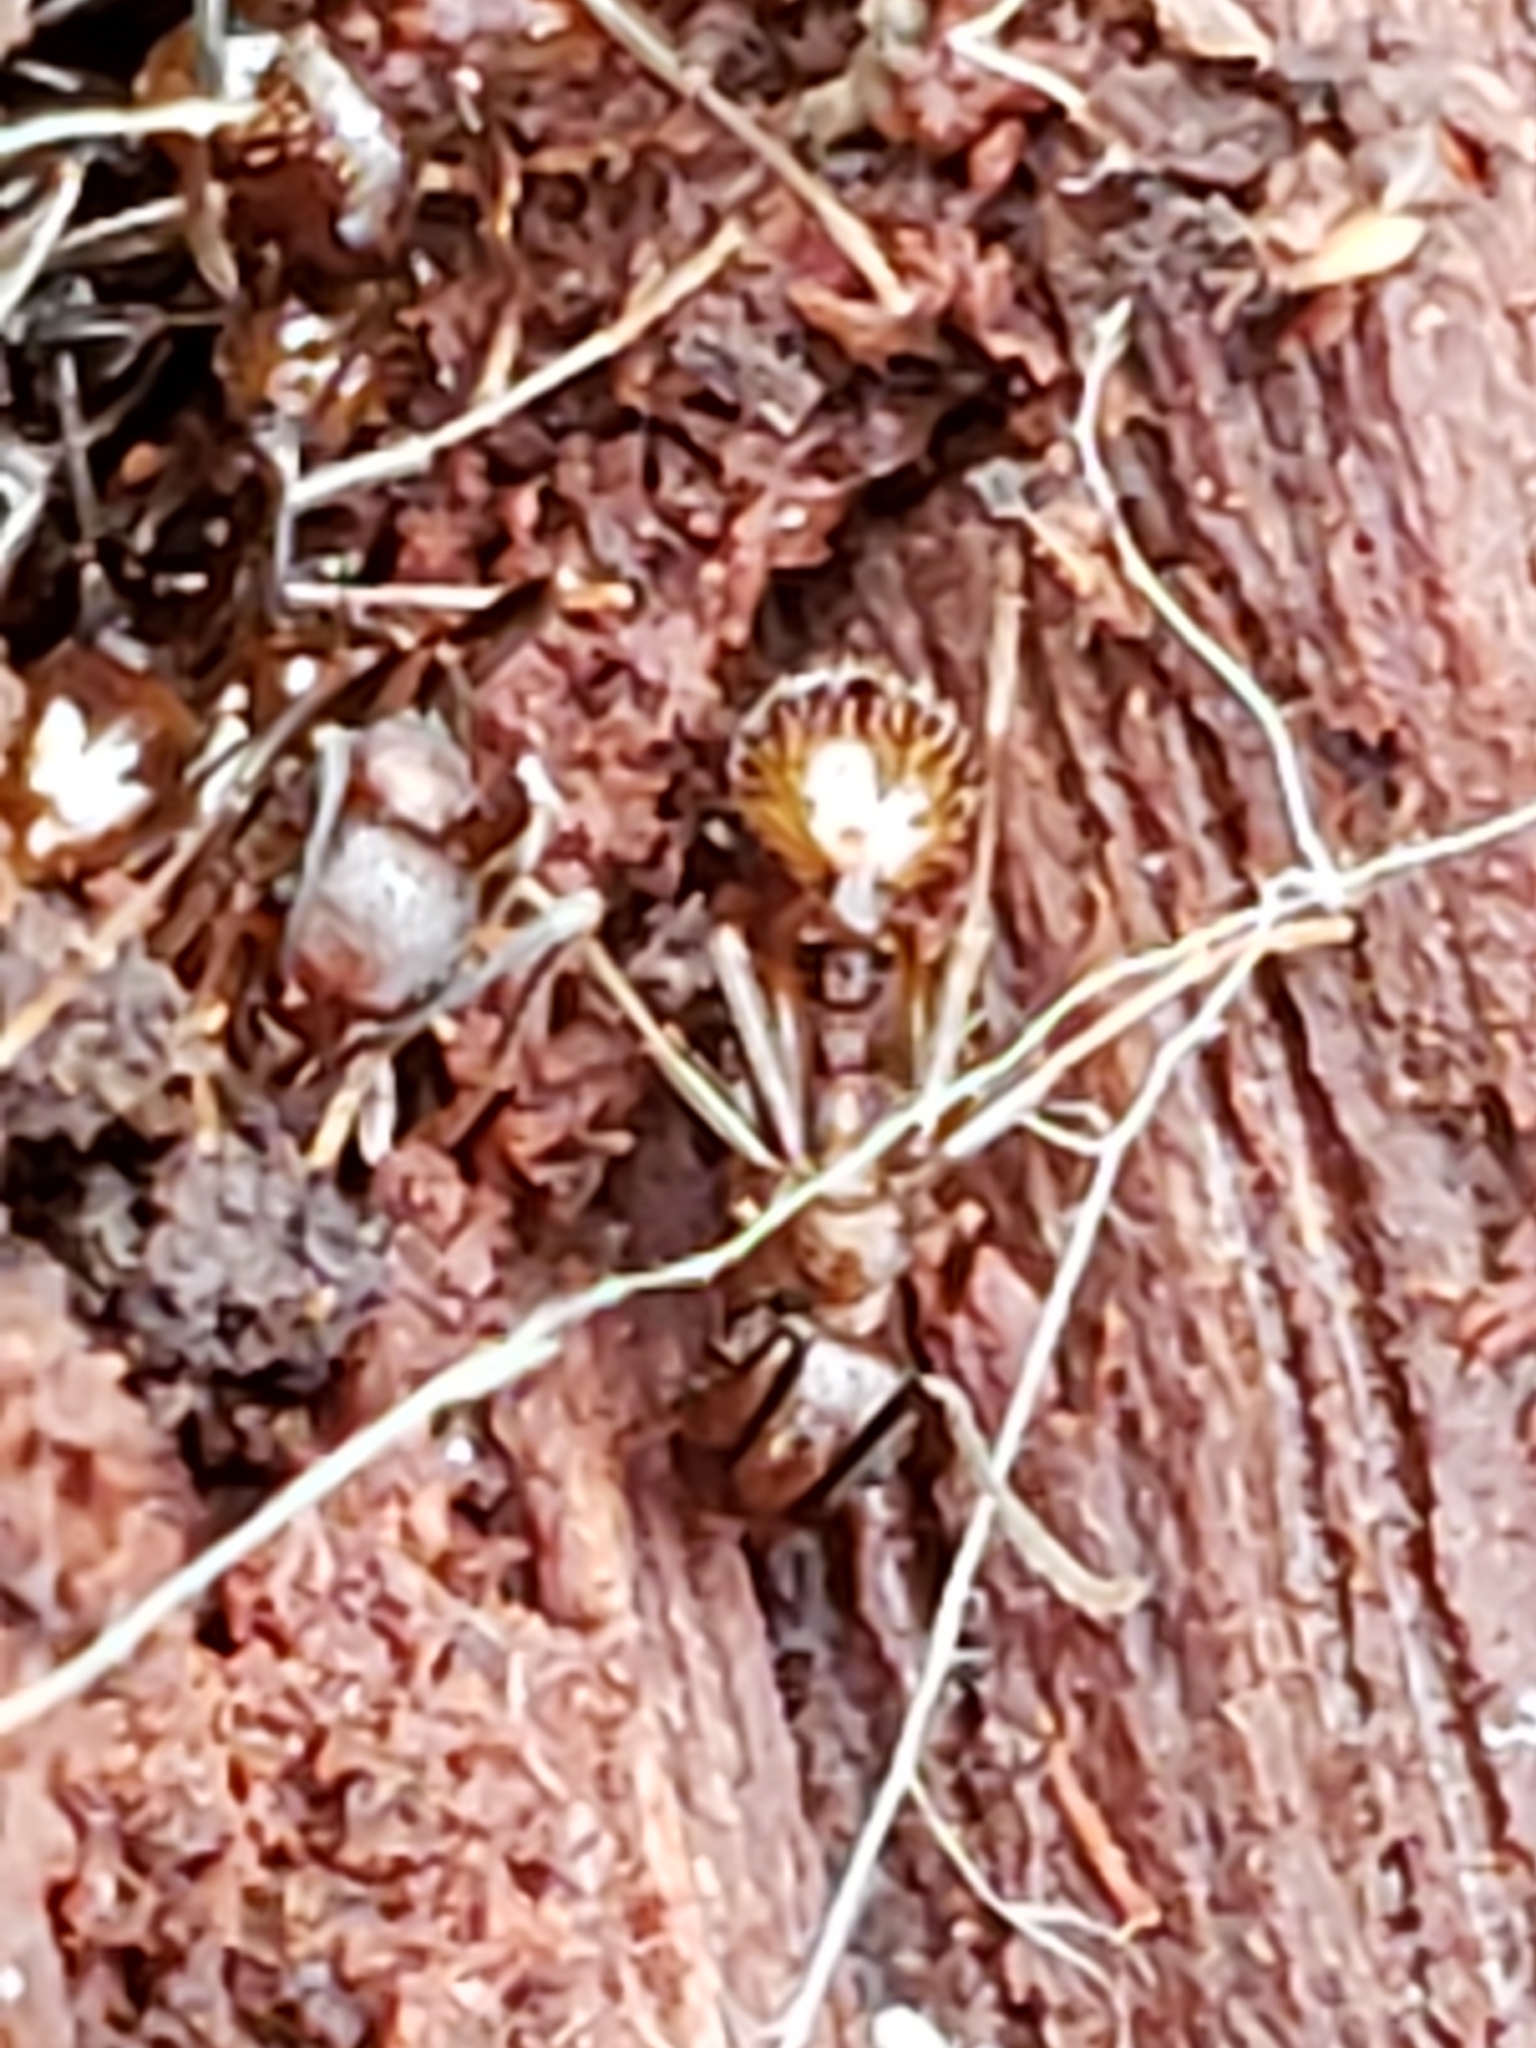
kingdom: Animalia
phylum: Arthropoda
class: Insecta
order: Hymenoptera
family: Formicidae
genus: Aphaenogaster
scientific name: Aphaenogaster fulva
